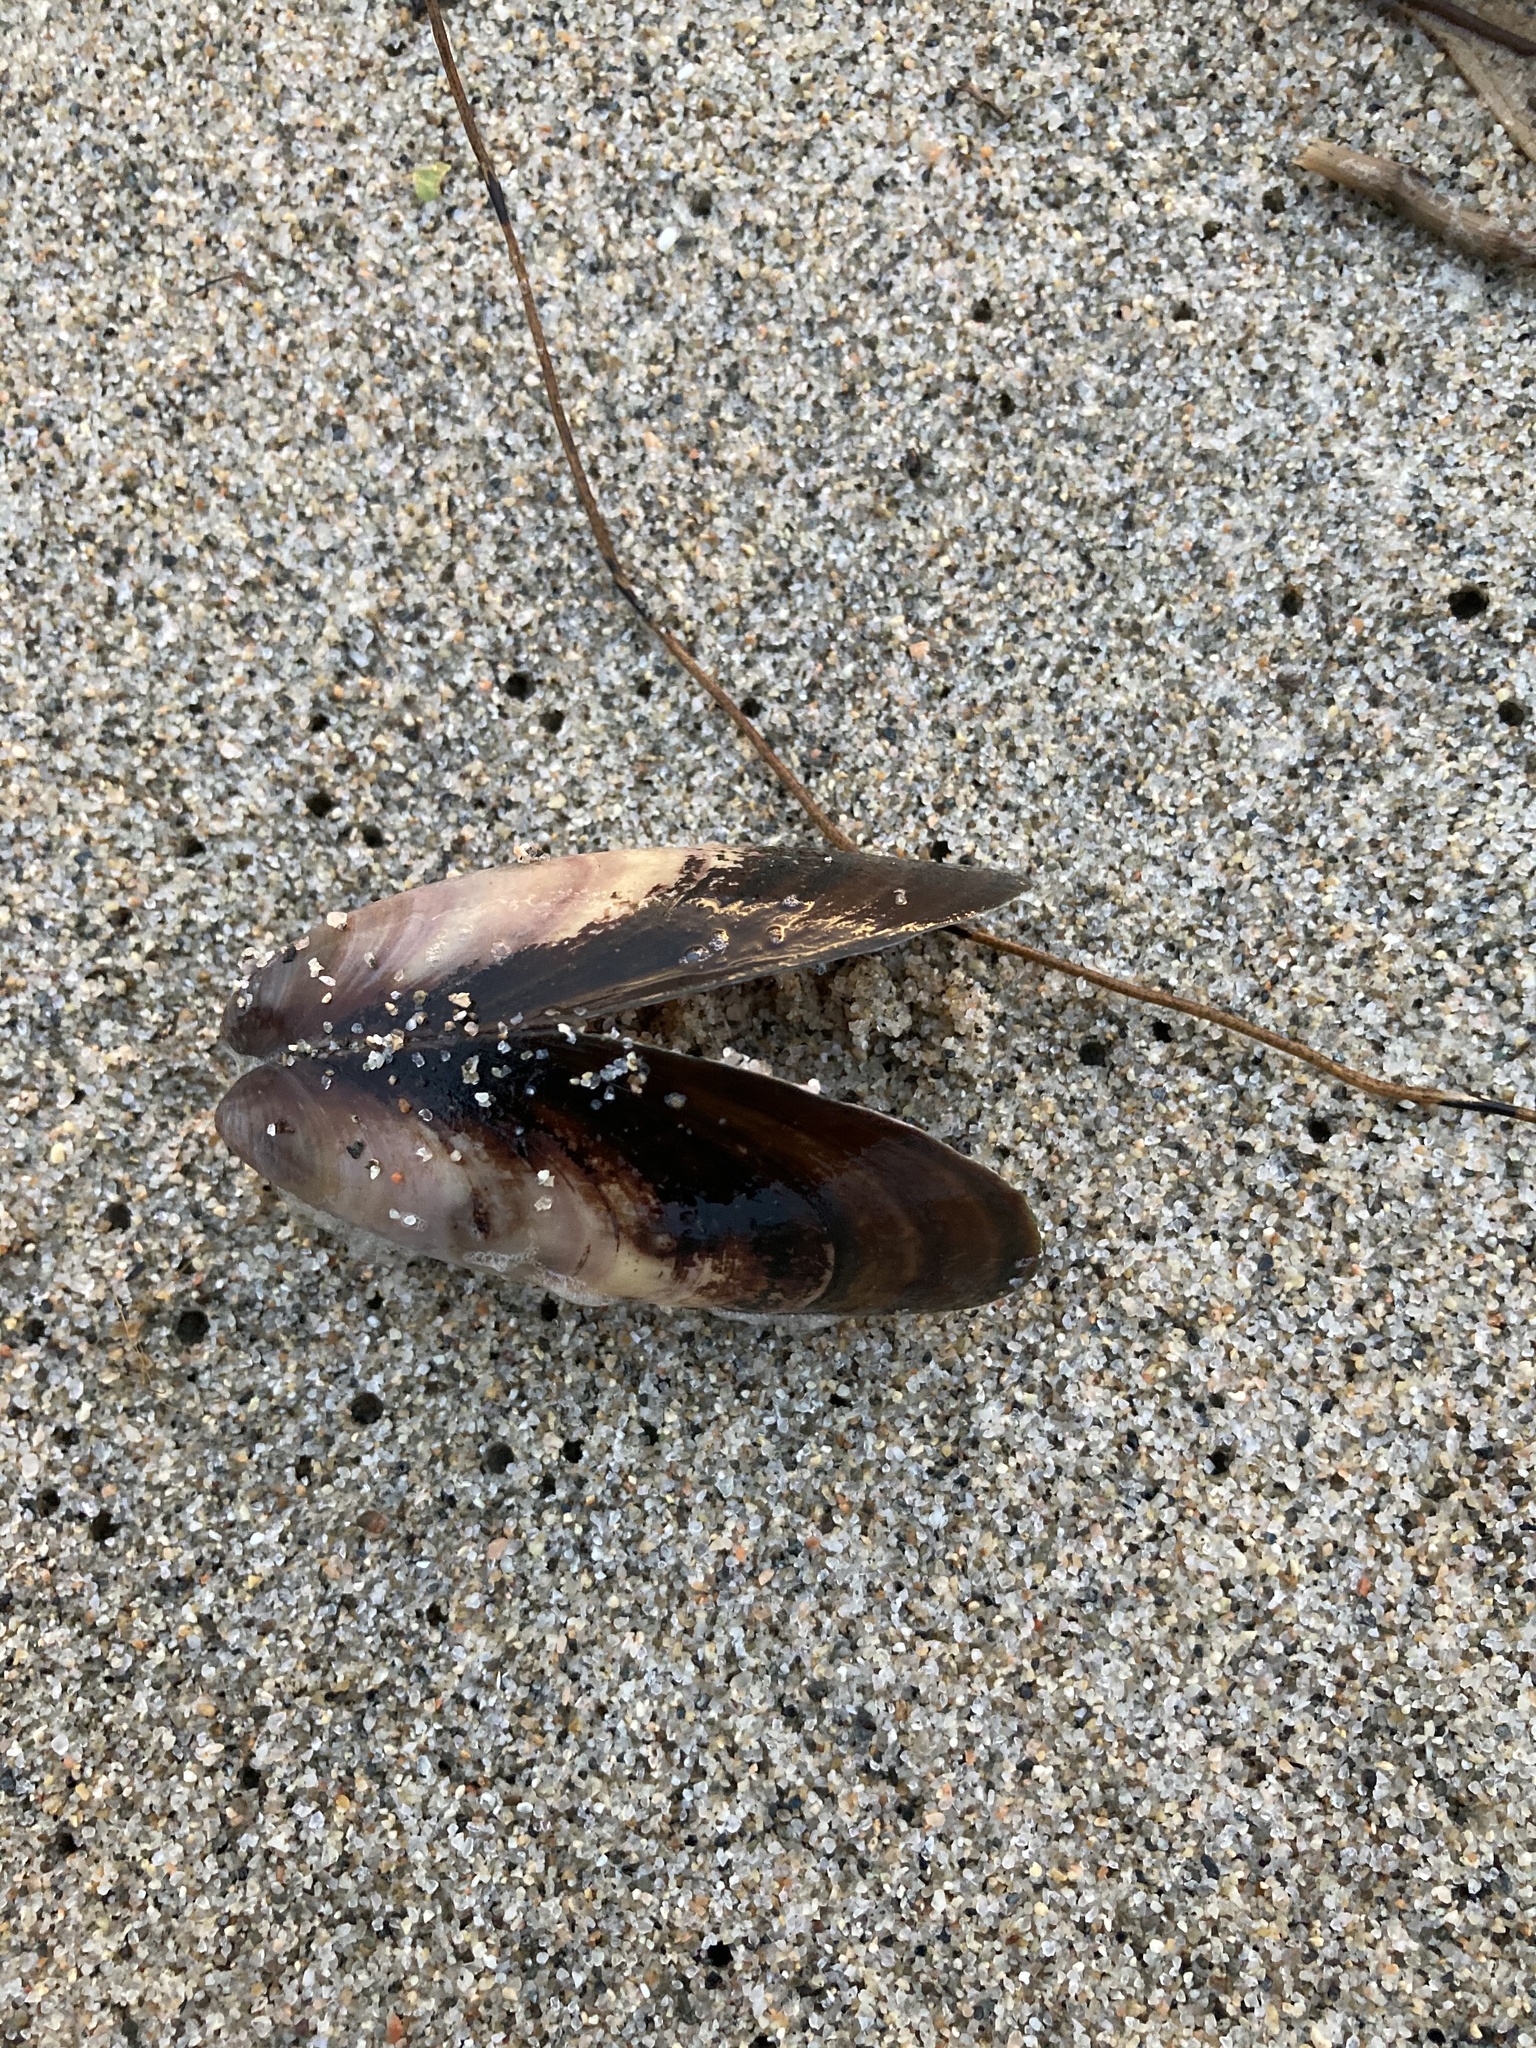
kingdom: Animalia
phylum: Mollusca
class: Bivalvia
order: Mytilida
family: Mytilidae
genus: Perna
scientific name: Perna canaliculus
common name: New zealand greenshelltm
